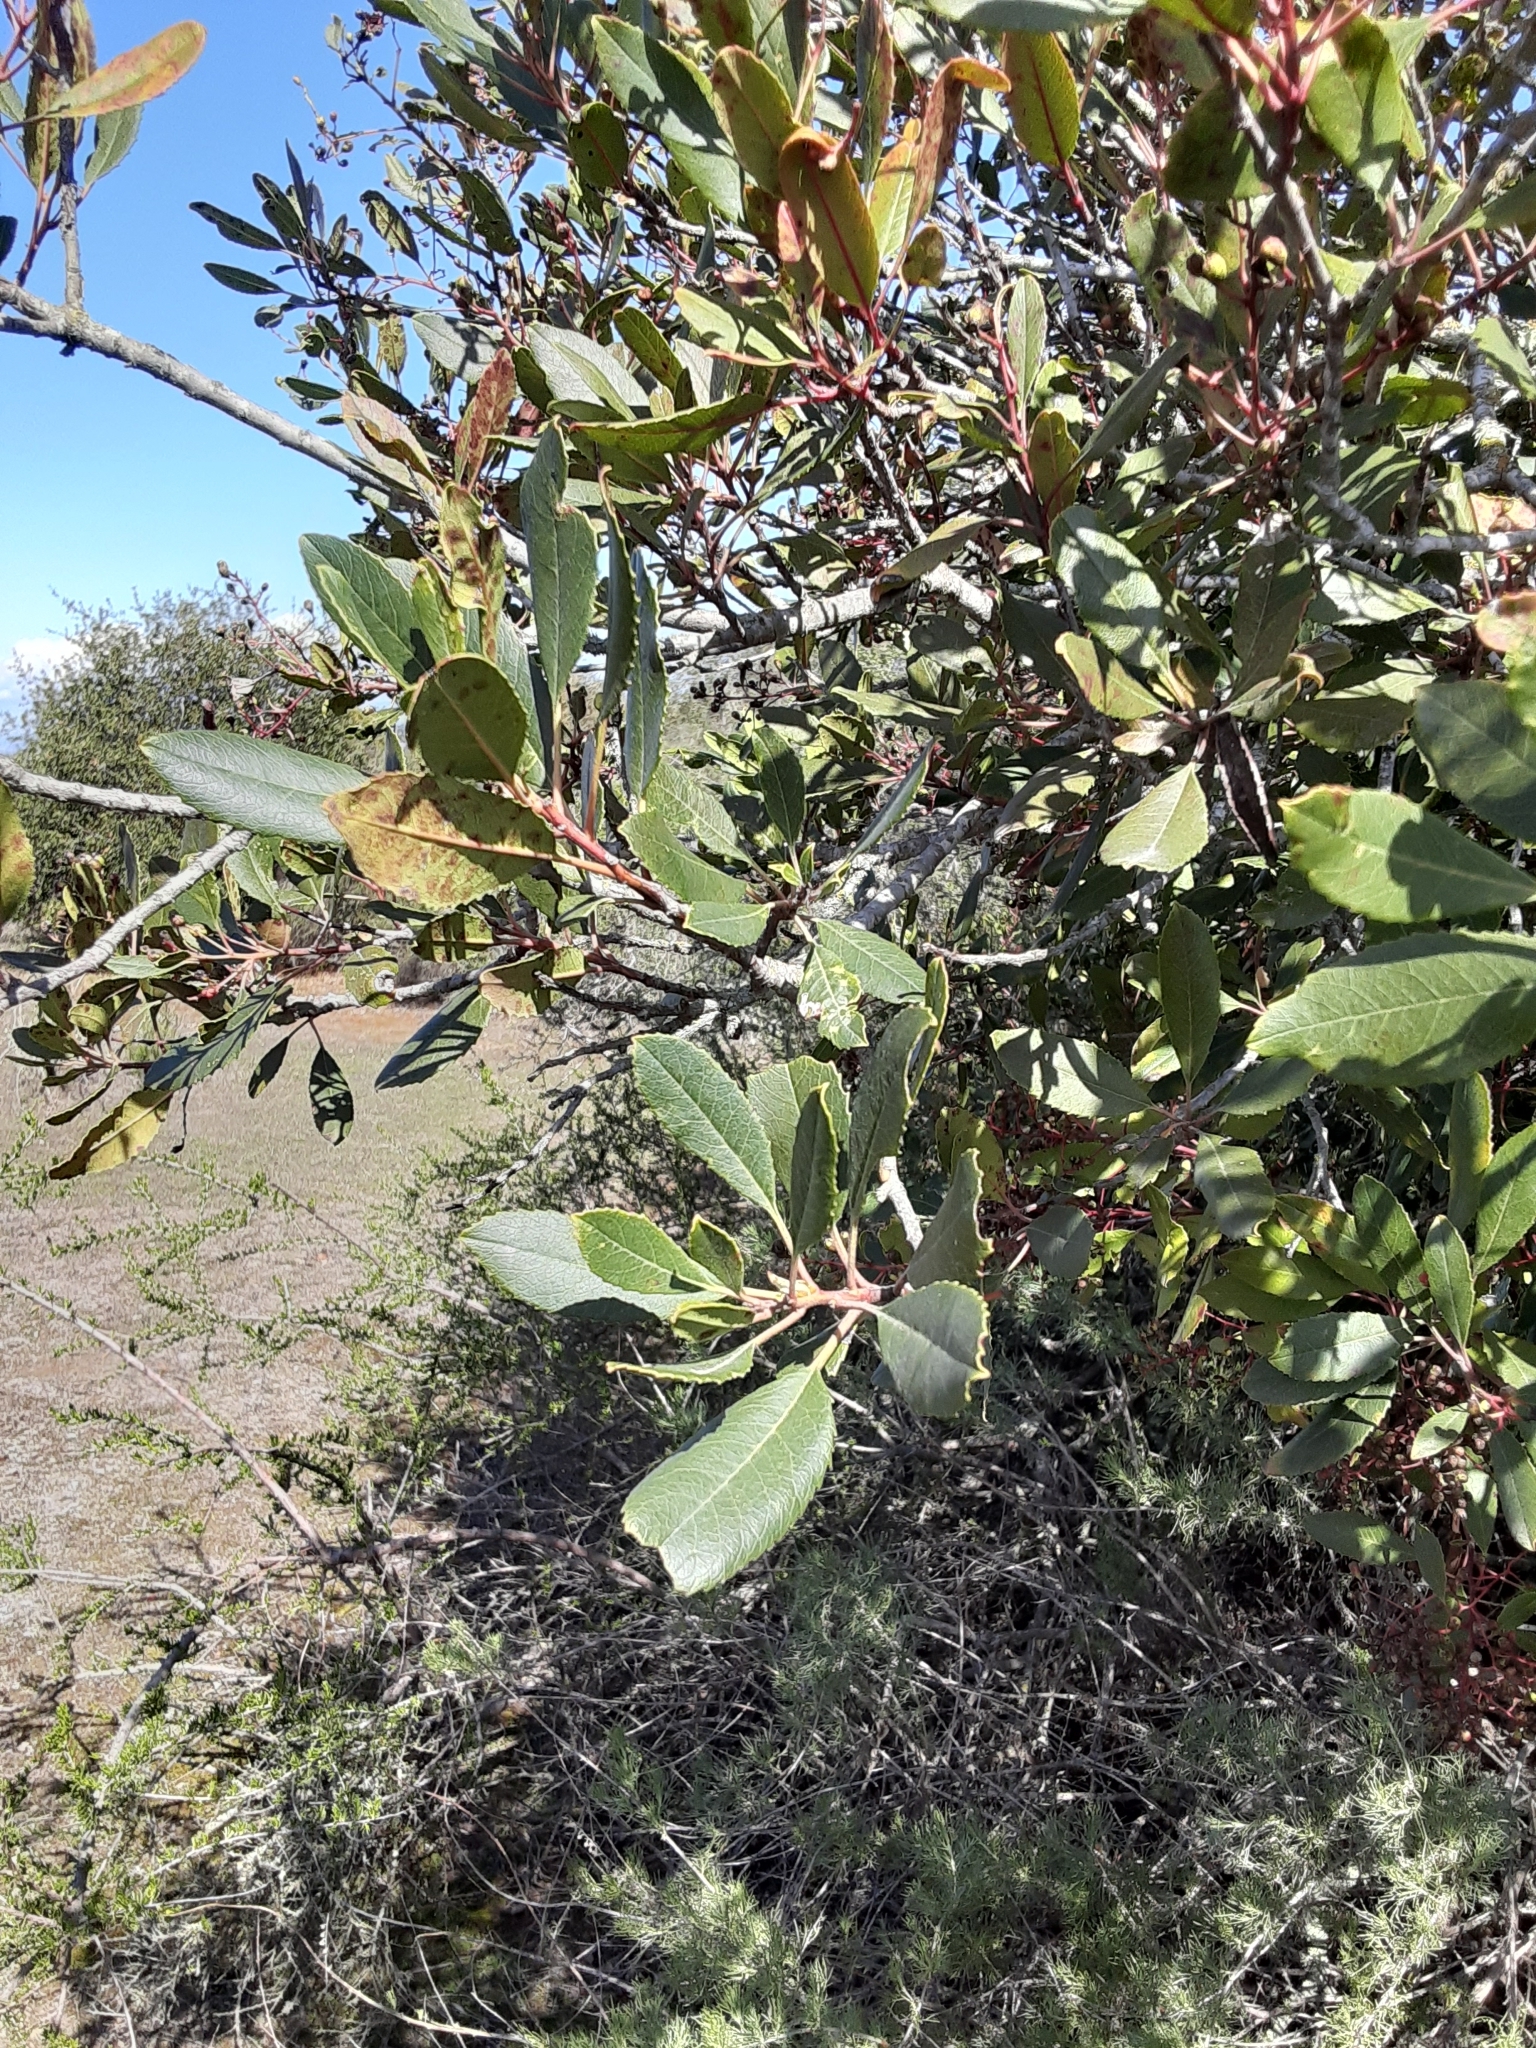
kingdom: Plantae
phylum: Tracheophyta
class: Magnoliopsida
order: Rosales
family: Rosaceae
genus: Heteromeles
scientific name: Heteromeles arbutifolia
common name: California-holly
